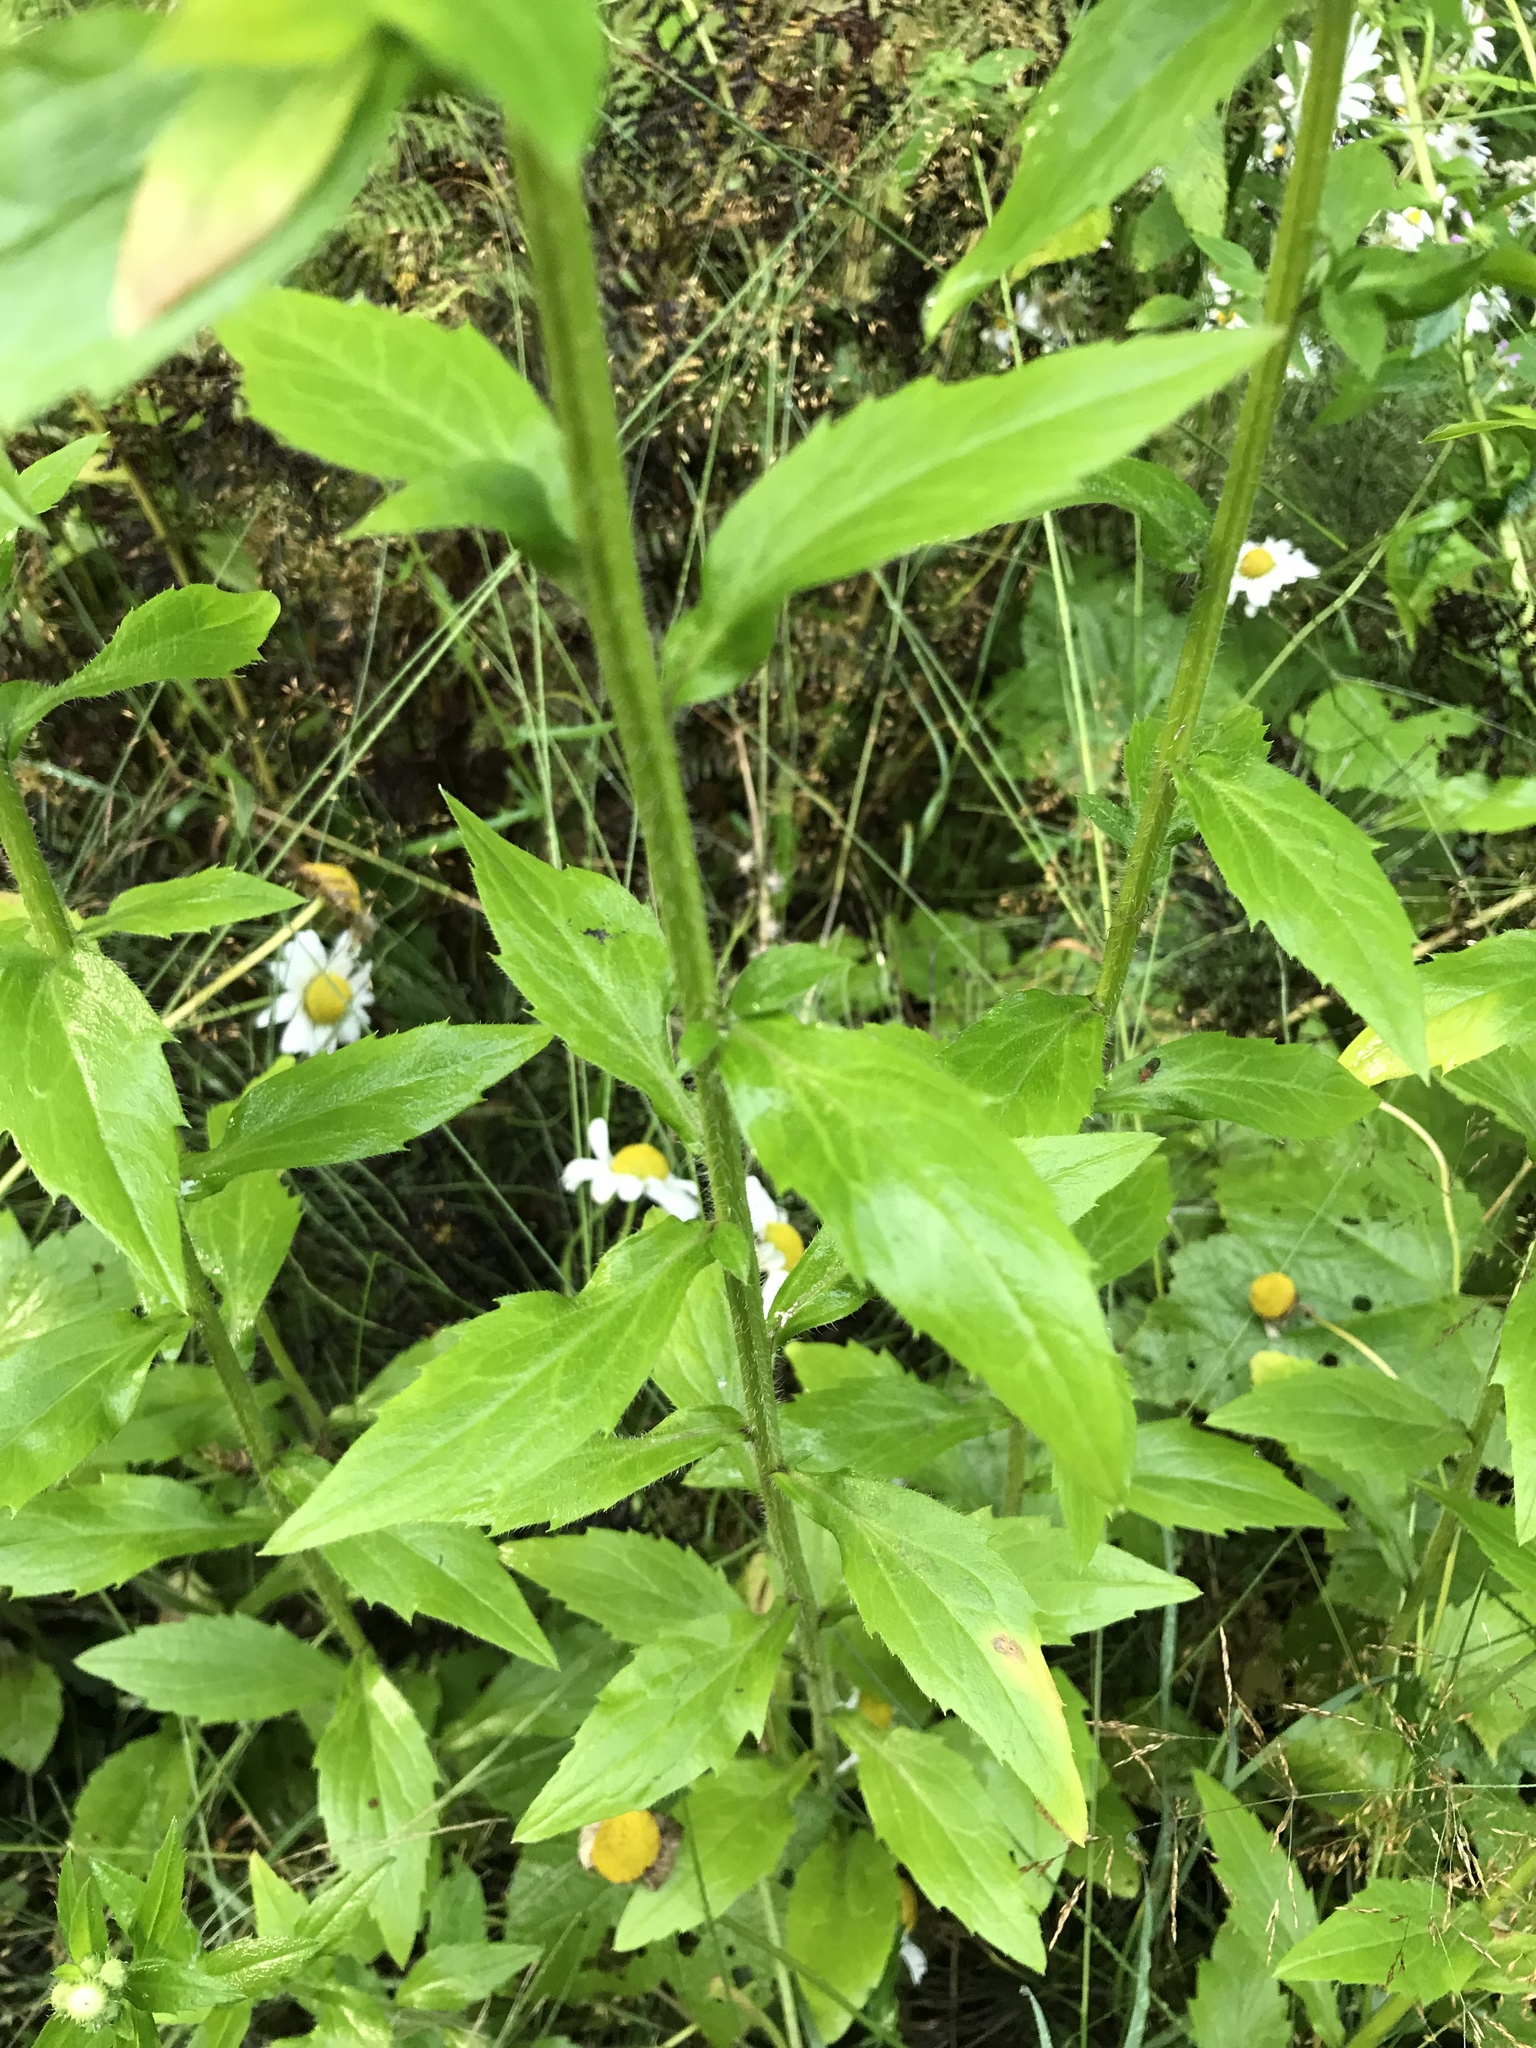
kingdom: Plantae
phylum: Tracheophyta
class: Magnoliopsida
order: Asterales
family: Asteraceae
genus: Erigeron
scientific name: Erigeron annuus
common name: Tall fleabane
